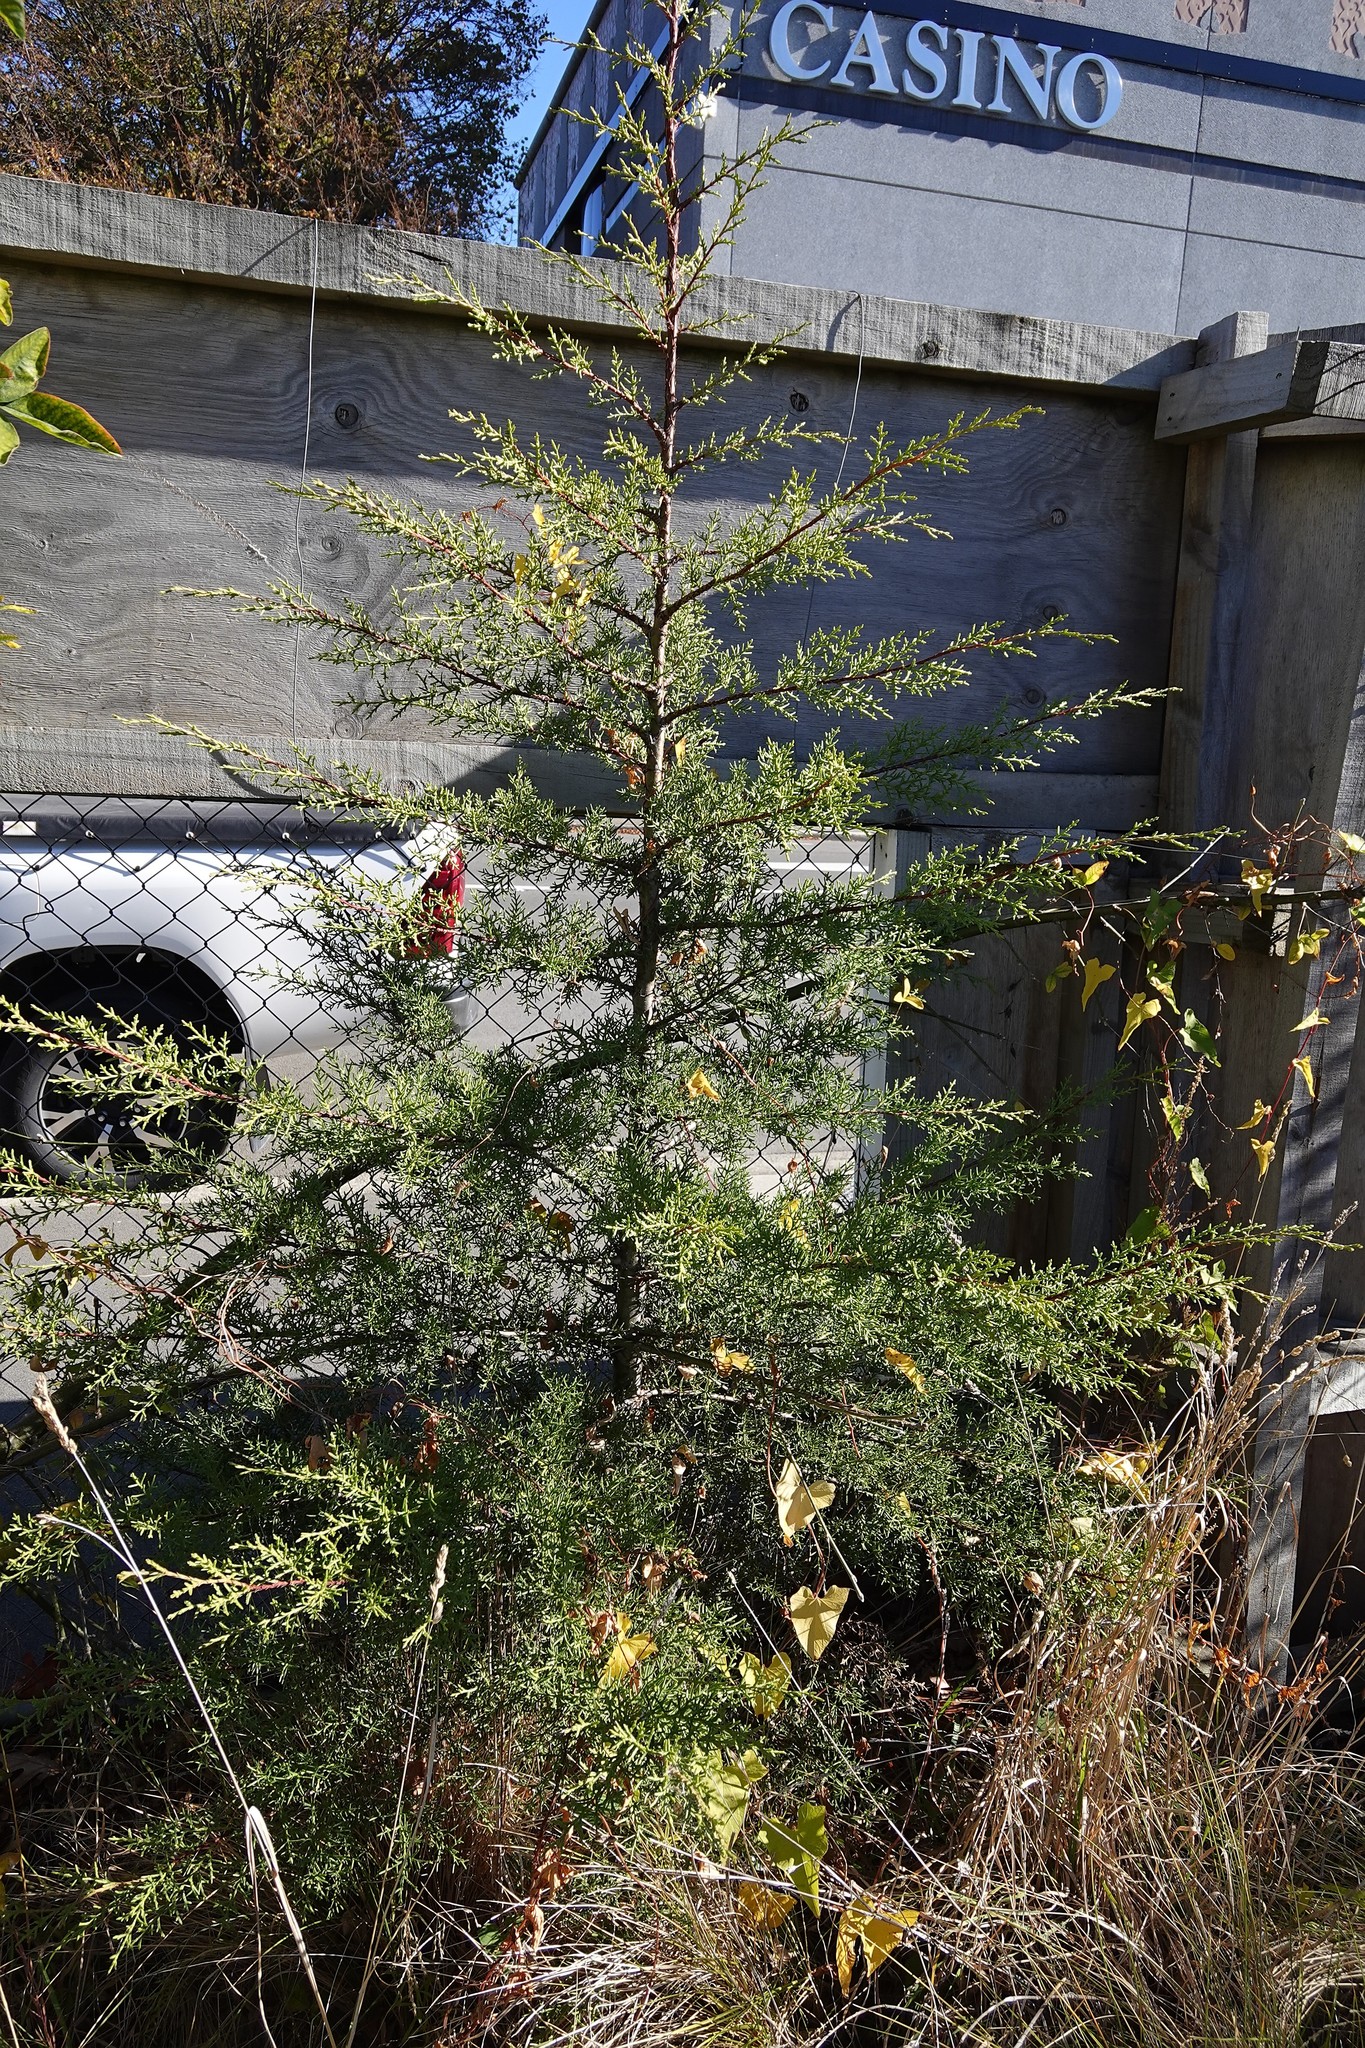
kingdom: Plantae
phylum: Tracheophyta
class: Pinopsida
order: Pinales
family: Cupressaceae
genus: Cupressus
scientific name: Cupressus macrocarpa
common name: Monterey cypress
